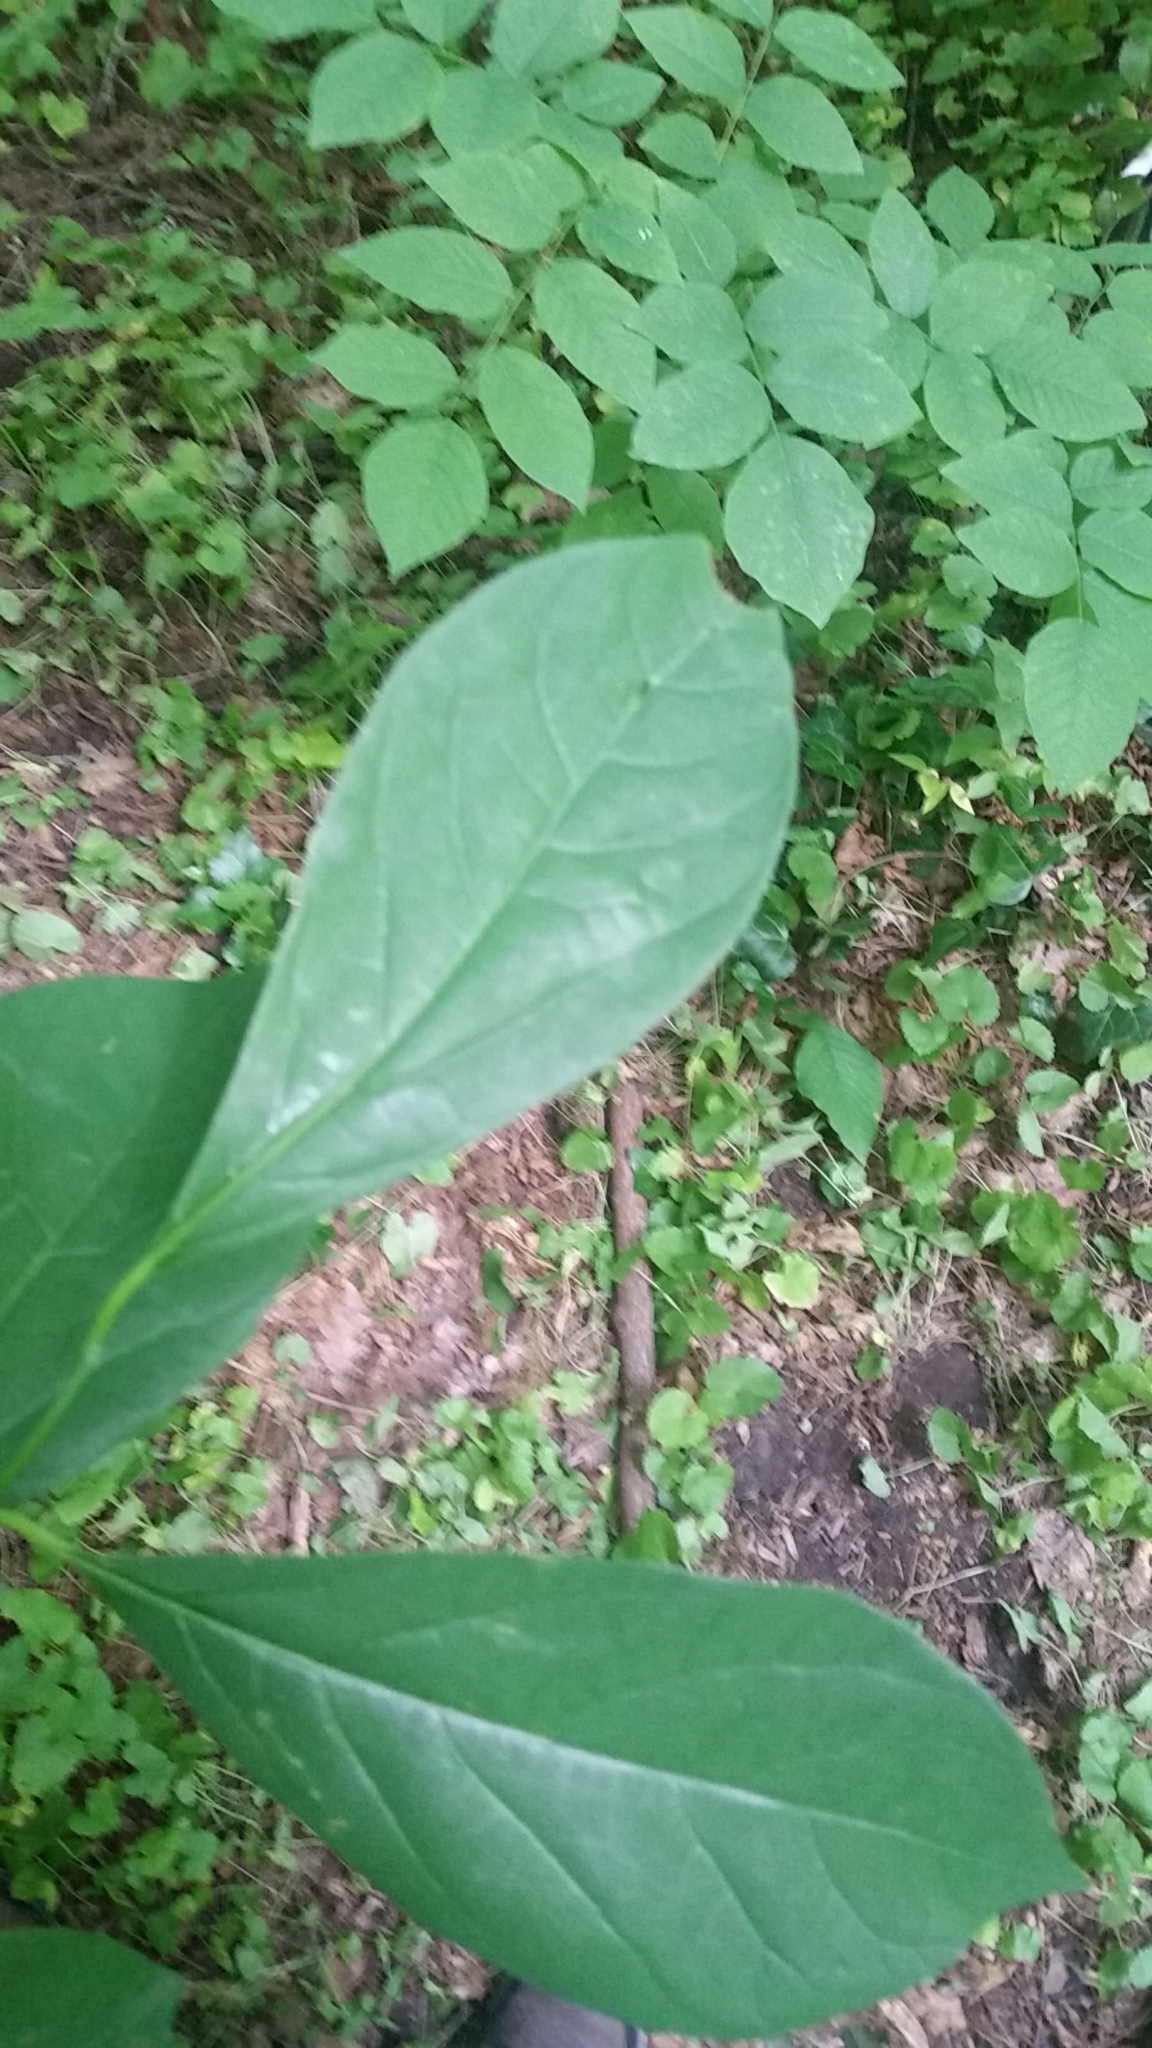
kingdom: Plantae
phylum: Tracheophyta
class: Magnoliopsida
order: Laurales
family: Lauraceae
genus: Lindera
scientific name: Lindera benzoin
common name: Spicebush
